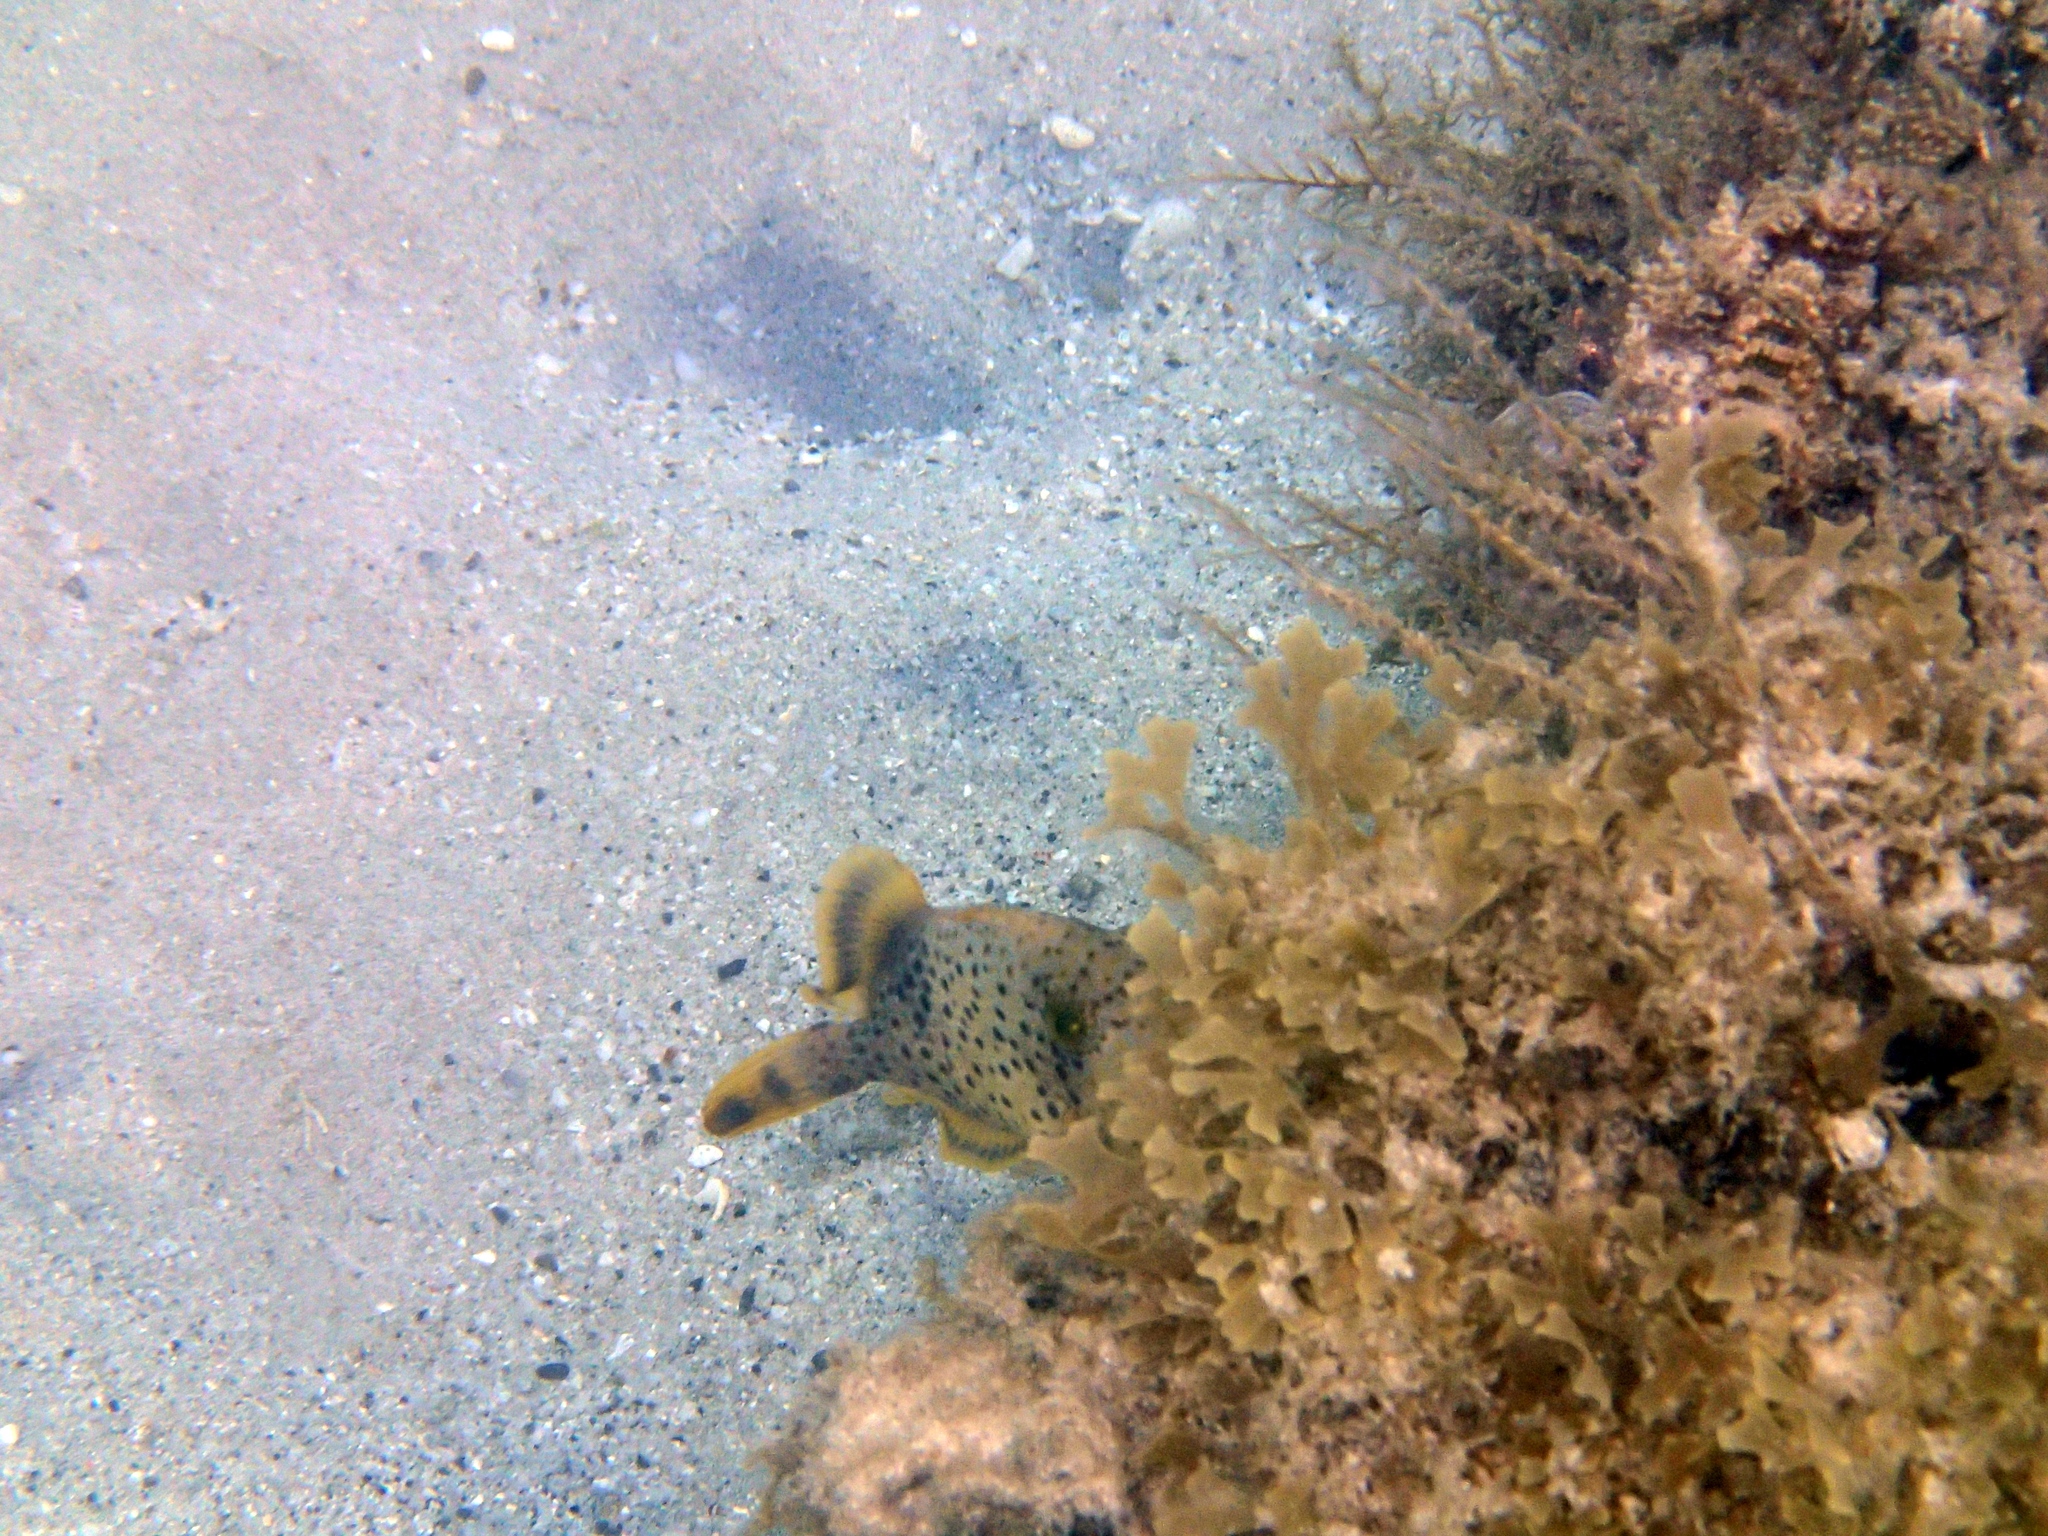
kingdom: Animalia
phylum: Chordata
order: Tetraodontiformes
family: Balistidae
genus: Pseudobalistes
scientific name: Pseudobalistes flavimarginatus
